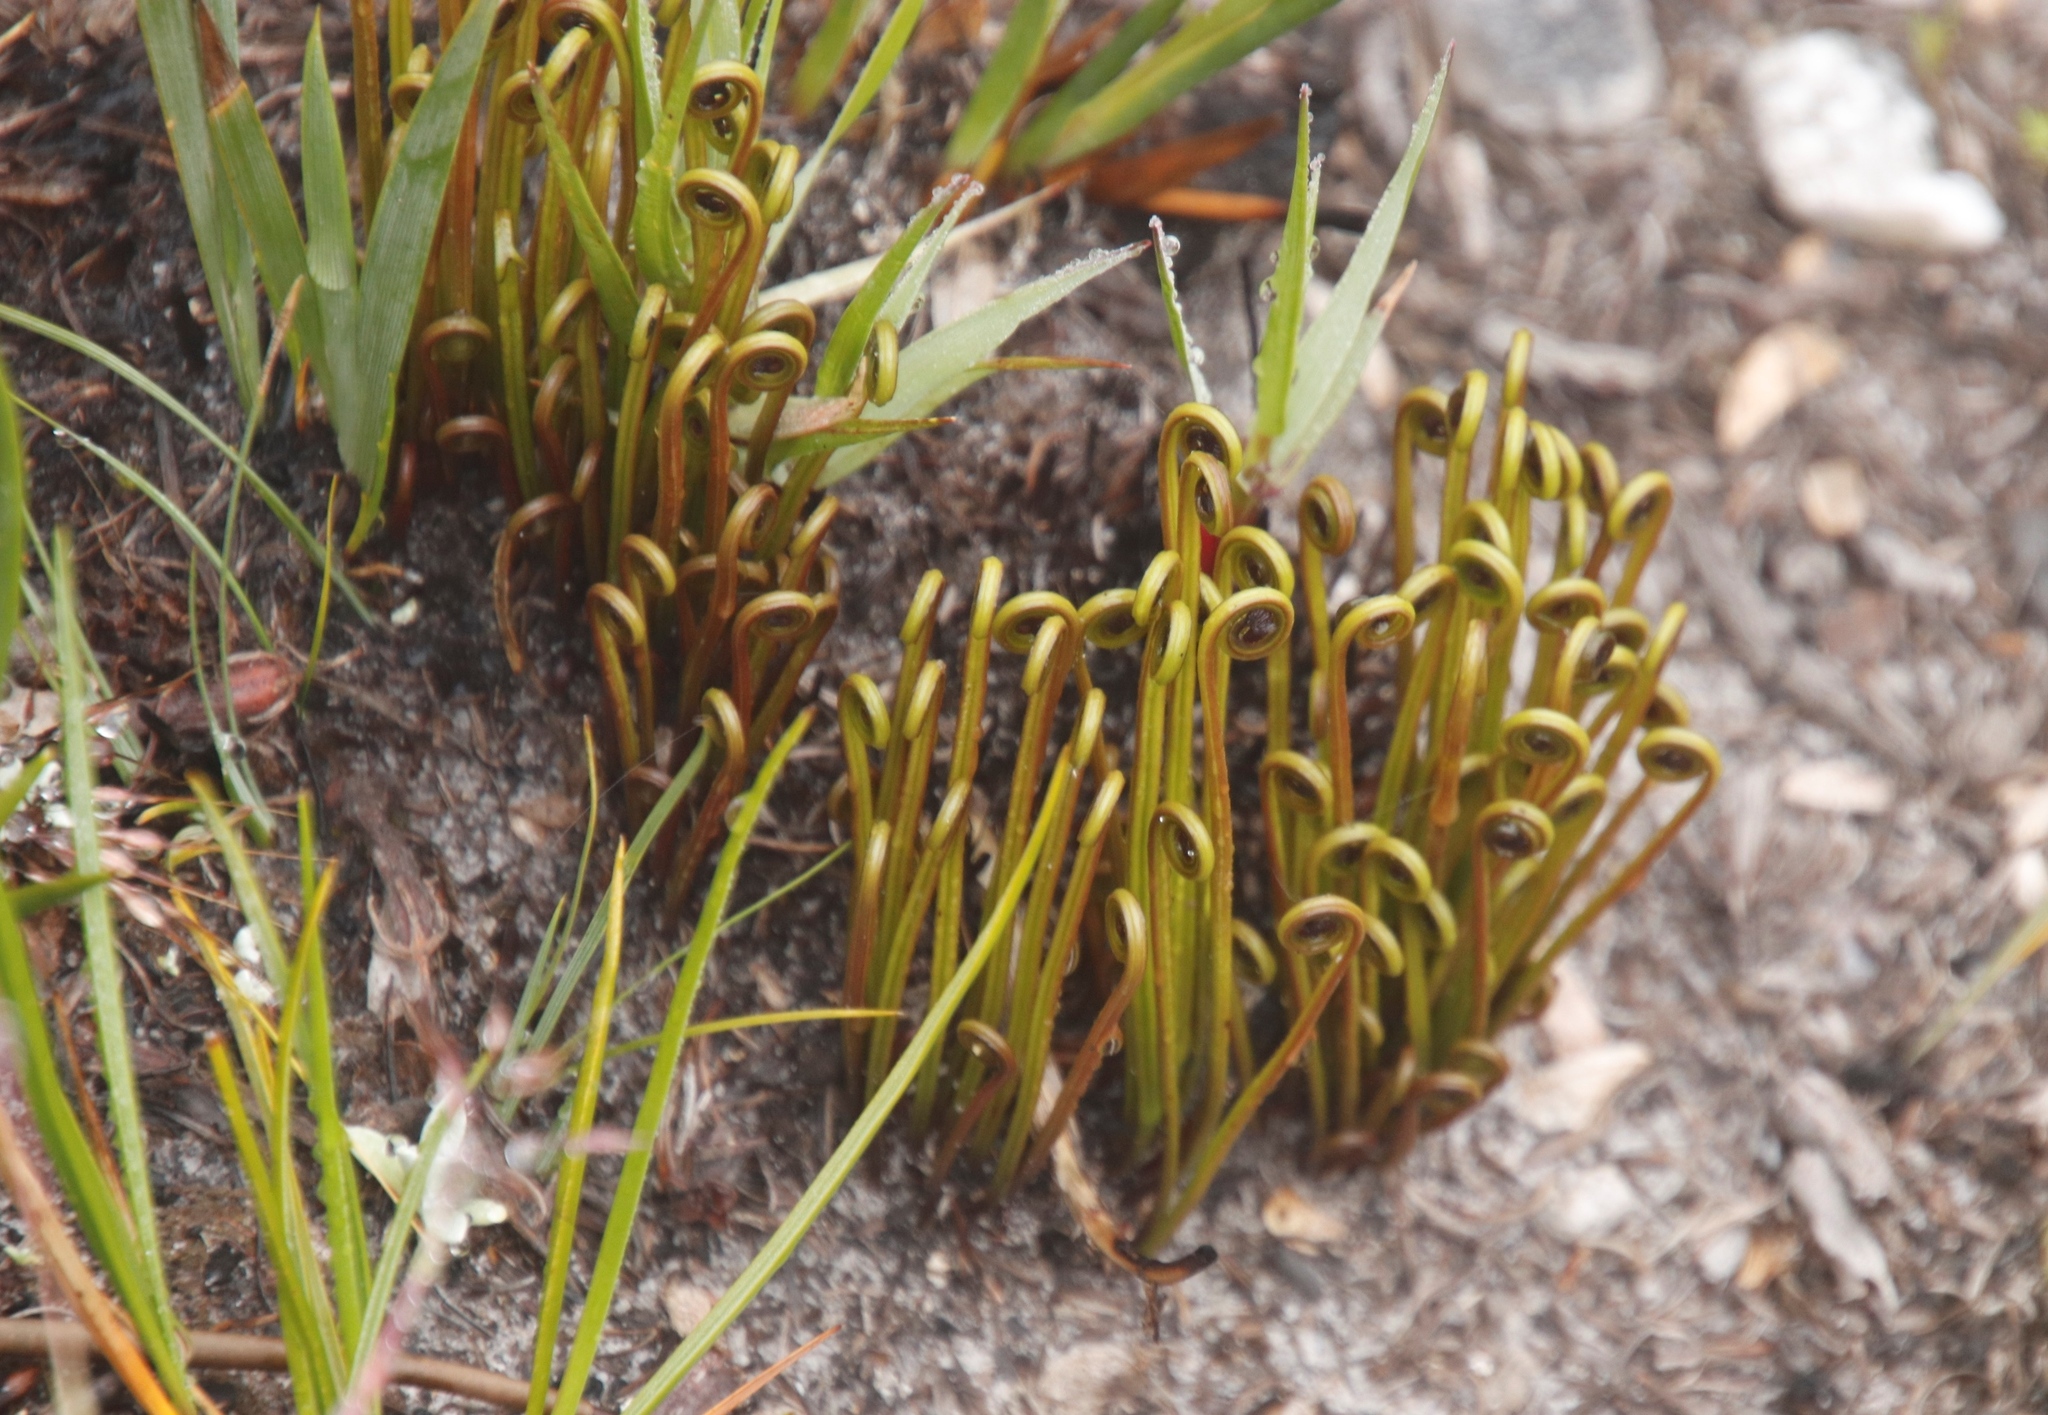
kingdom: Plantae
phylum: Tracheophyta
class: Polypodiopsida
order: Schizaeales
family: Schizaeaceae
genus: Schizaea
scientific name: Schizaea pectinata
